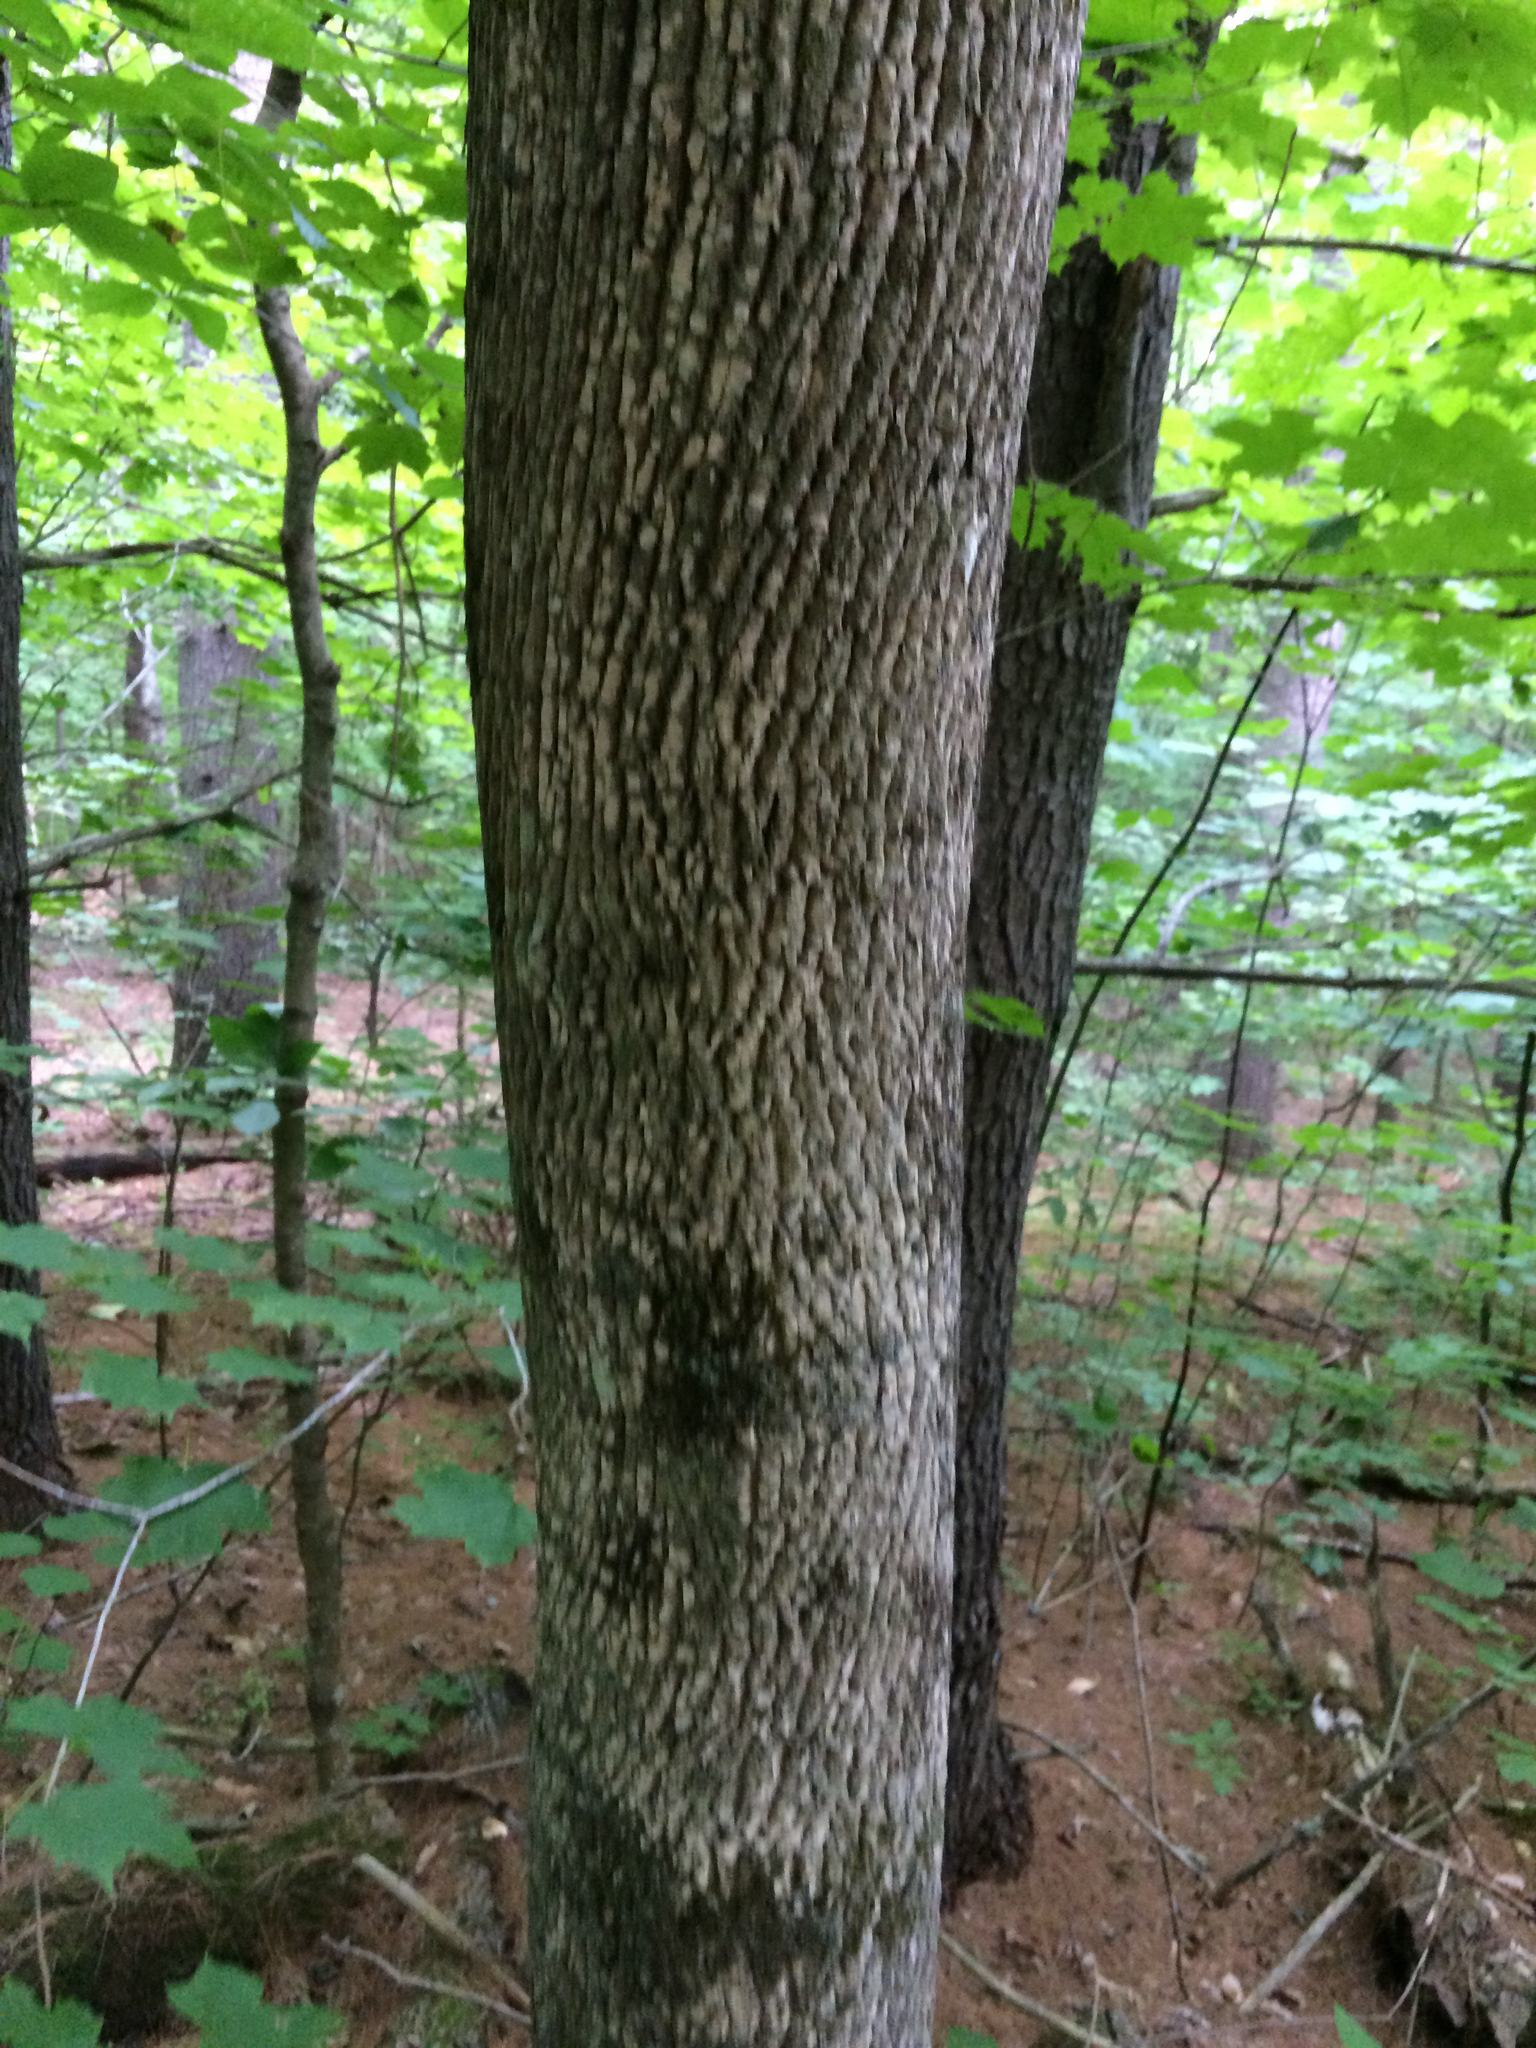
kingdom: Plantae
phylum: Tracheophyta
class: Magnoliopsida
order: Lamiales
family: Oleaceae
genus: Fraxinus
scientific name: Fraxinus americana
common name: White ash
